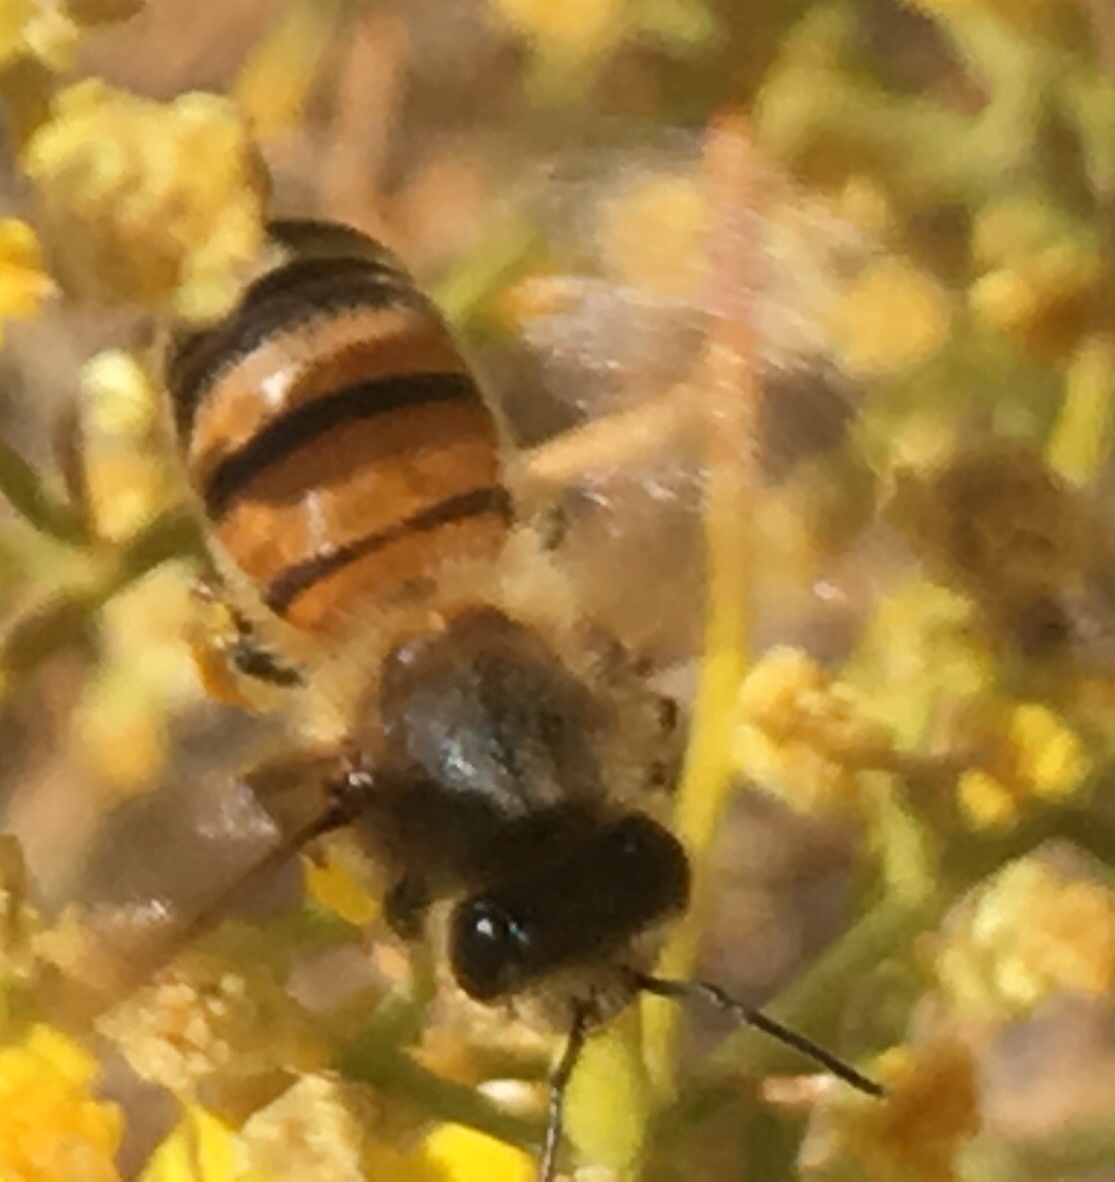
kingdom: Animalia
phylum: Arthropoda
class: Insecta
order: Hymenoptera
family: Apidae
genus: Apis
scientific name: Apis mellifera
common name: Honey bee
